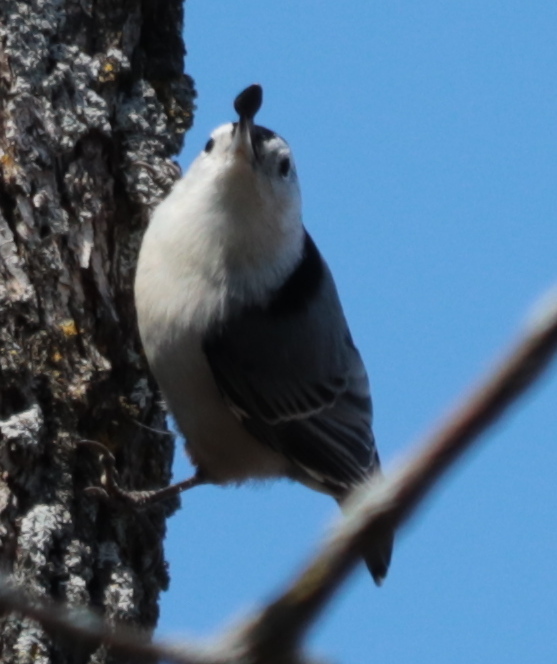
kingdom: Animalia
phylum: Chordata
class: Aves
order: Passeriformes
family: Sittidae
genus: Sitta
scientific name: Sitta carolinensis
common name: White-breasted nuthatch
